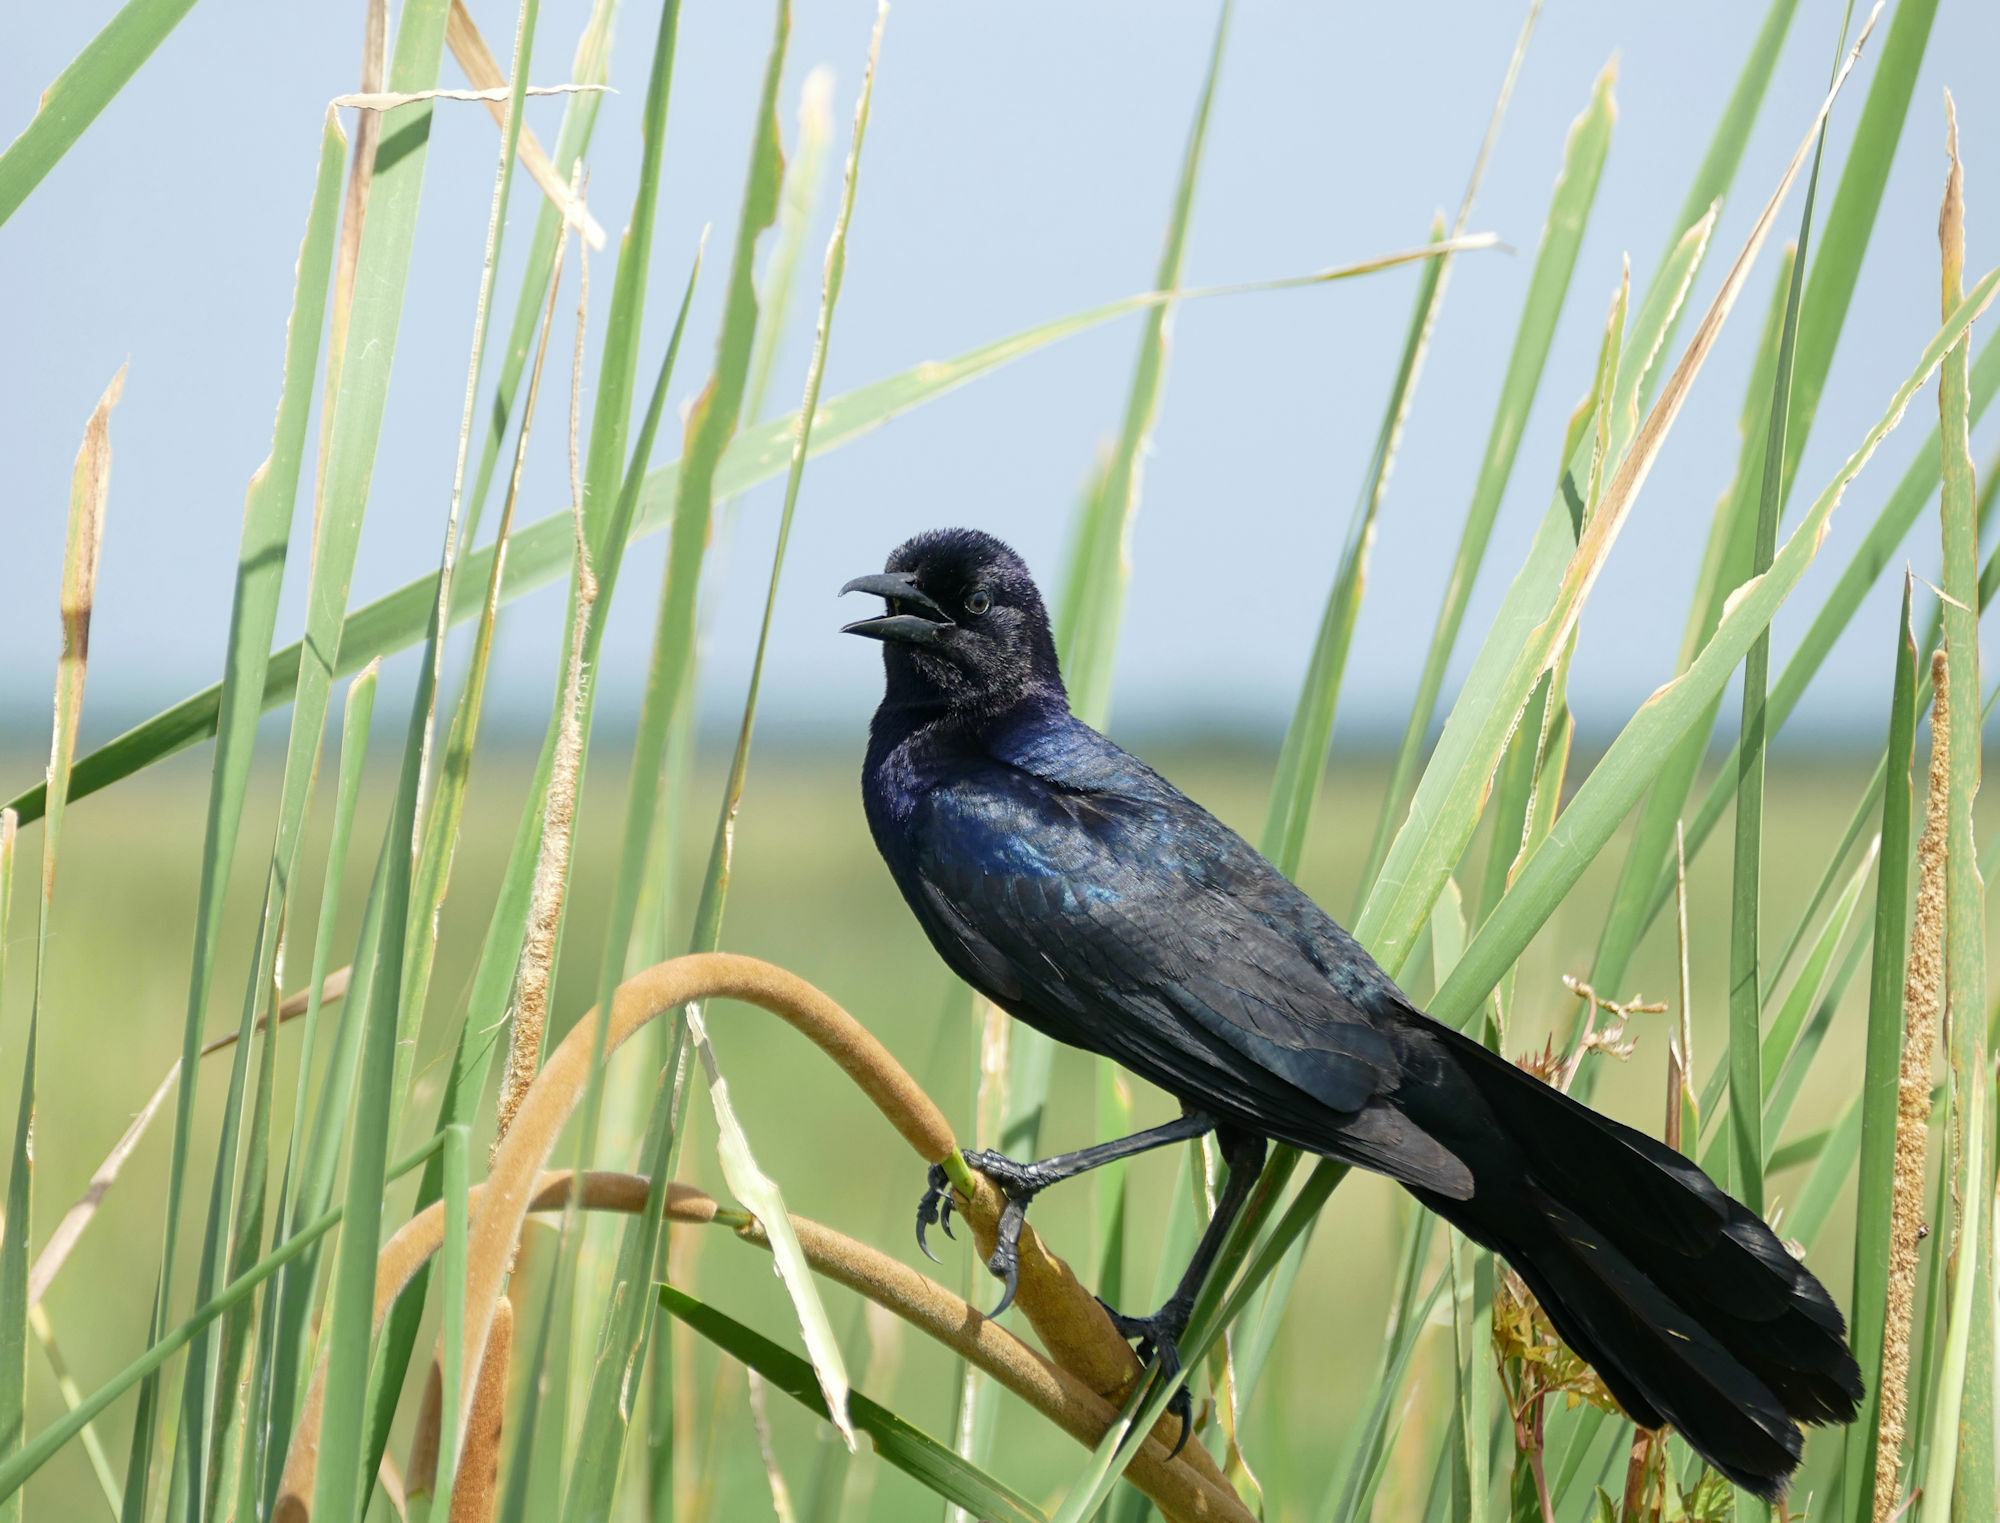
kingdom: Animalia
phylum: Chordata
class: Aves
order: Passeriformes
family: Icteridae
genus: Quiscalus
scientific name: Quiscalus major
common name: Boat-tailed grackle
